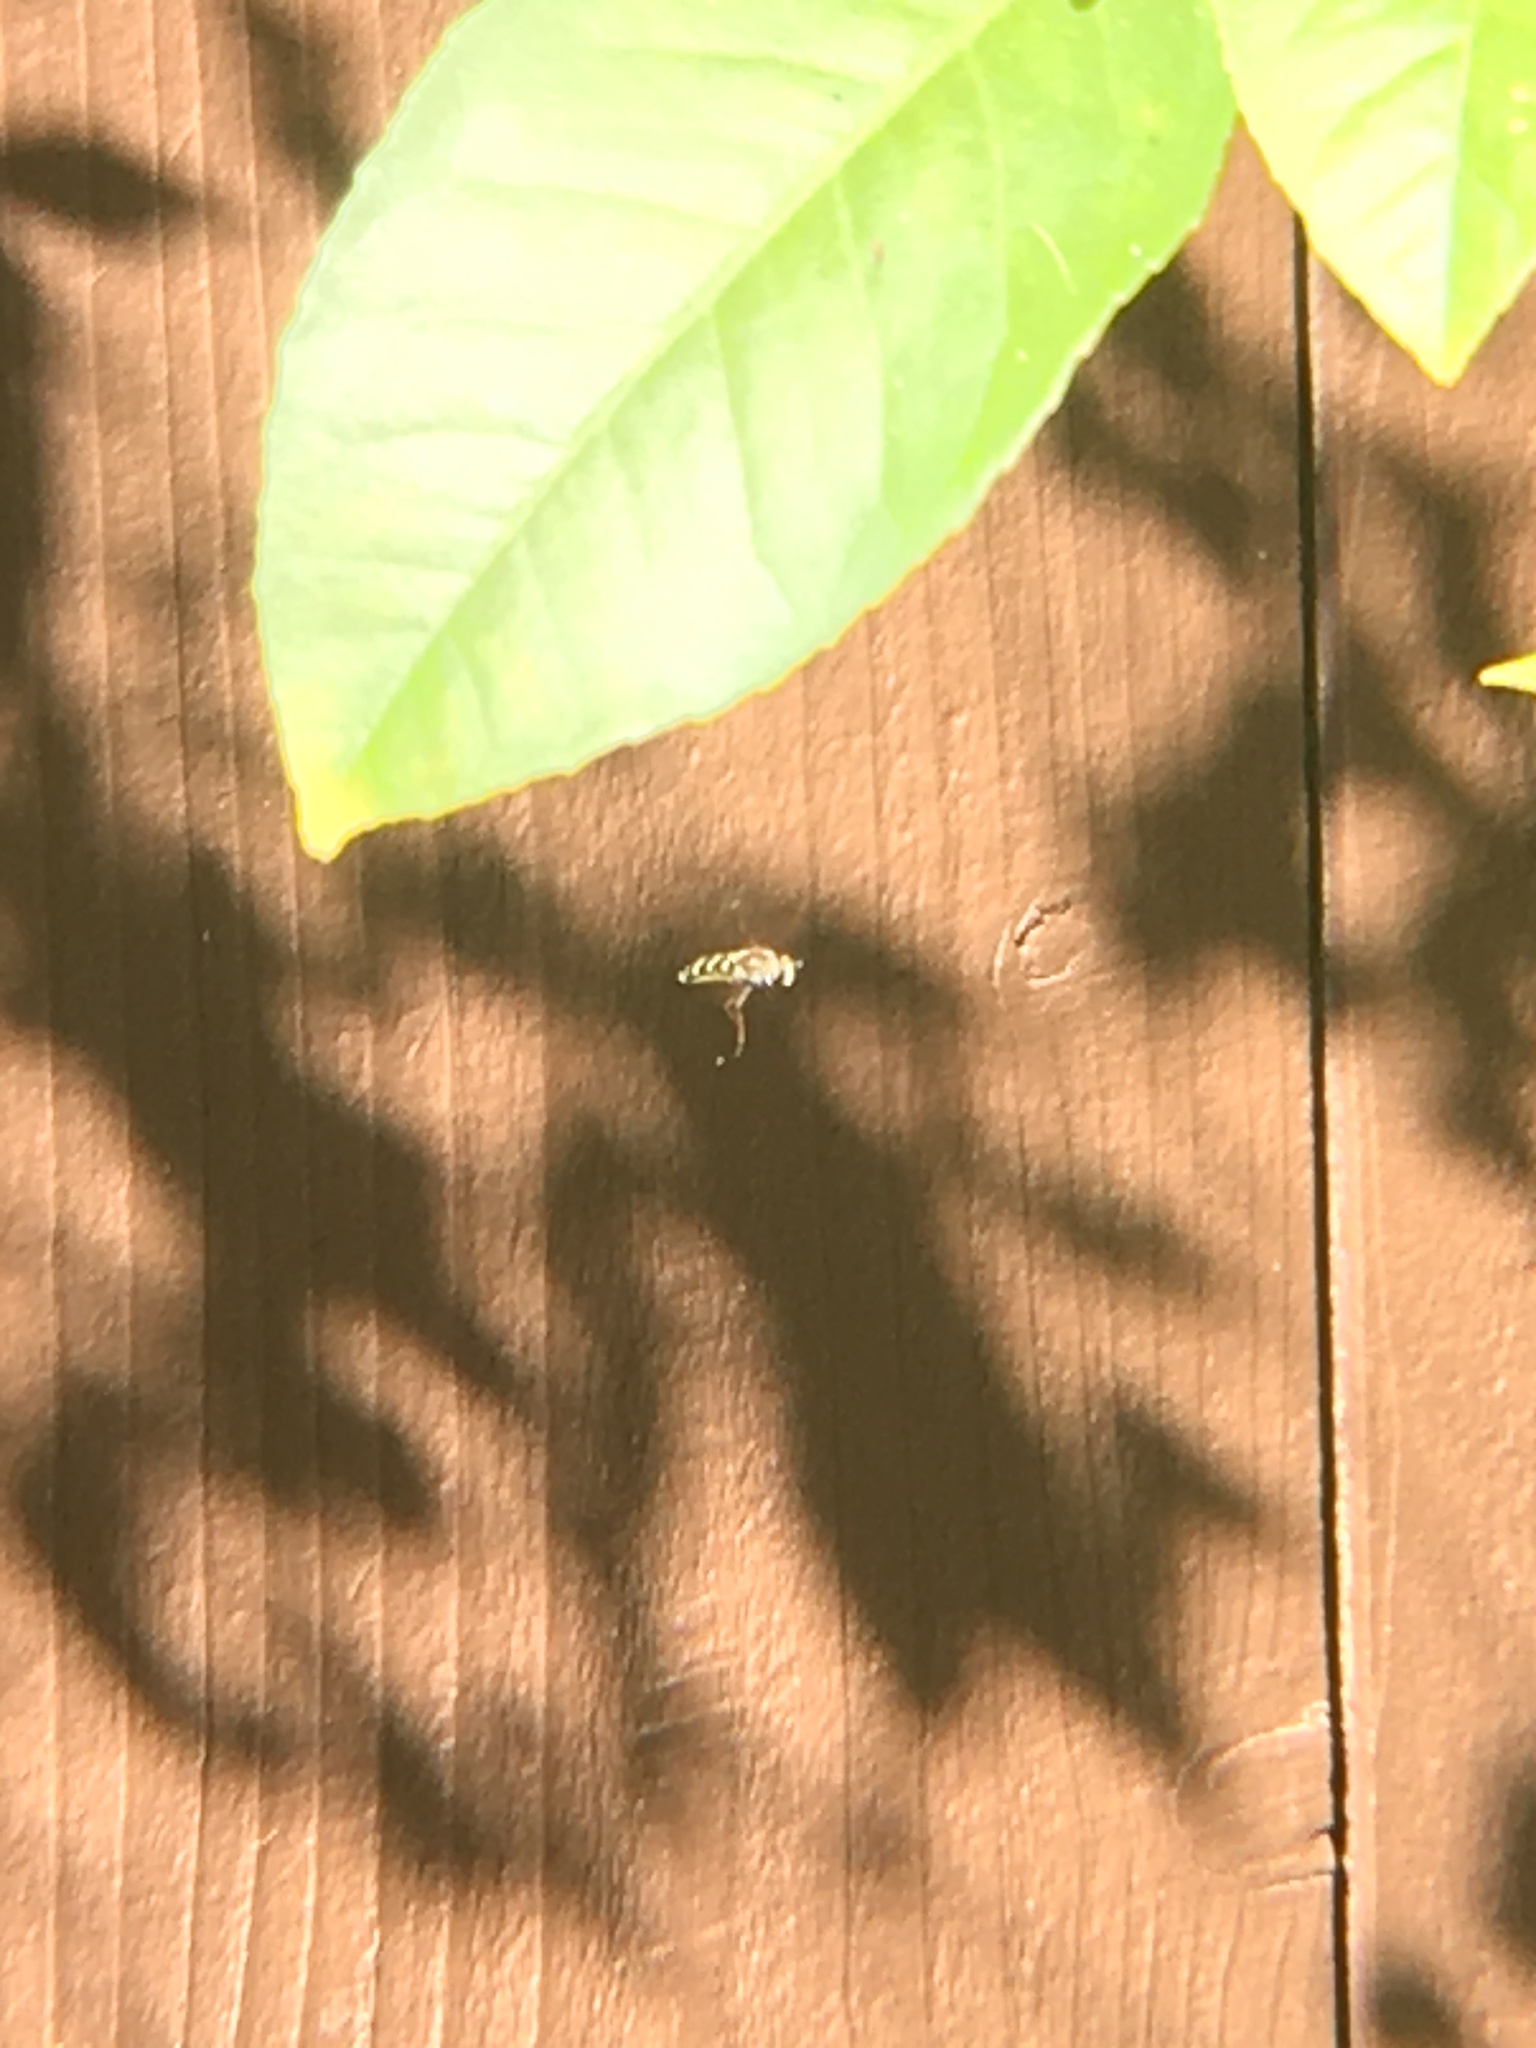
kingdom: Animalia
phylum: Arthropoda
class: Insecta
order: Diptera
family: Syrphidae
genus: Eupeodes
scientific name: Eupeodes fumipennis
